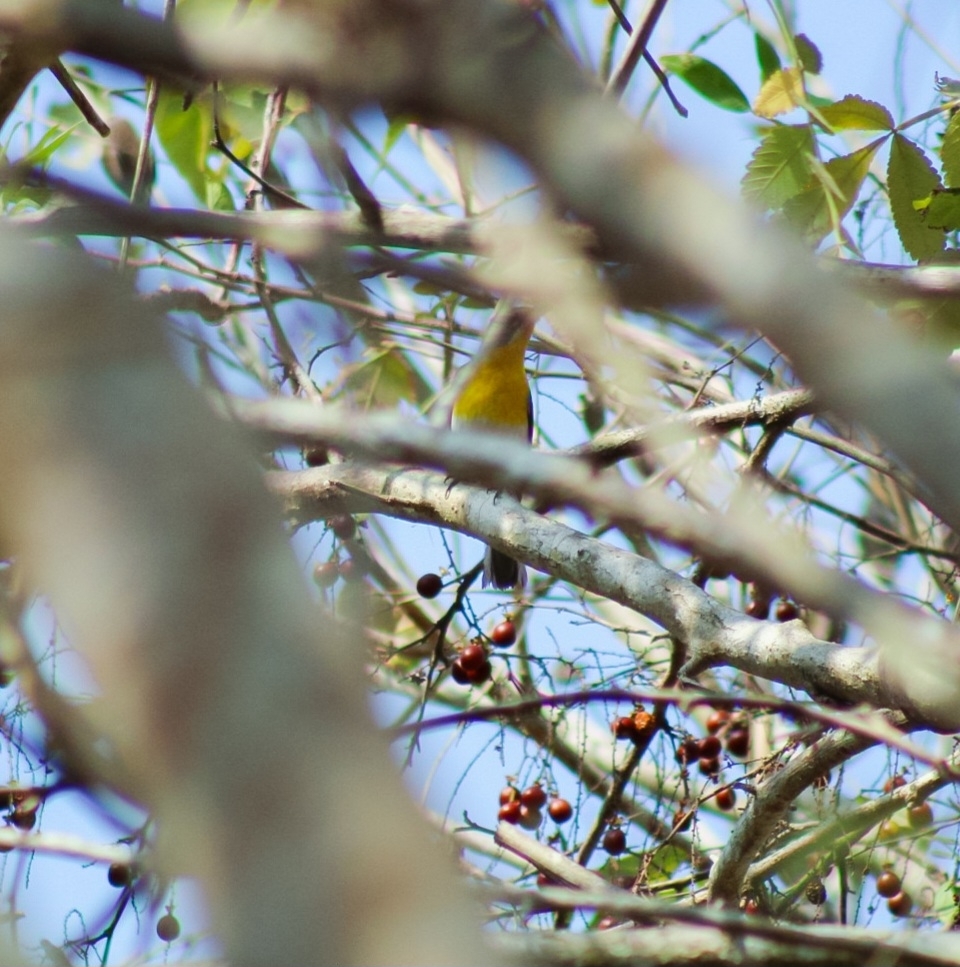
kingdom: Animalia
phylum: Chordata
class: Aves
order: Passeriformes
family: Parulidae
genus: Icteria
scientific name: Icteria virens
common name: Yellow-breasted chat
